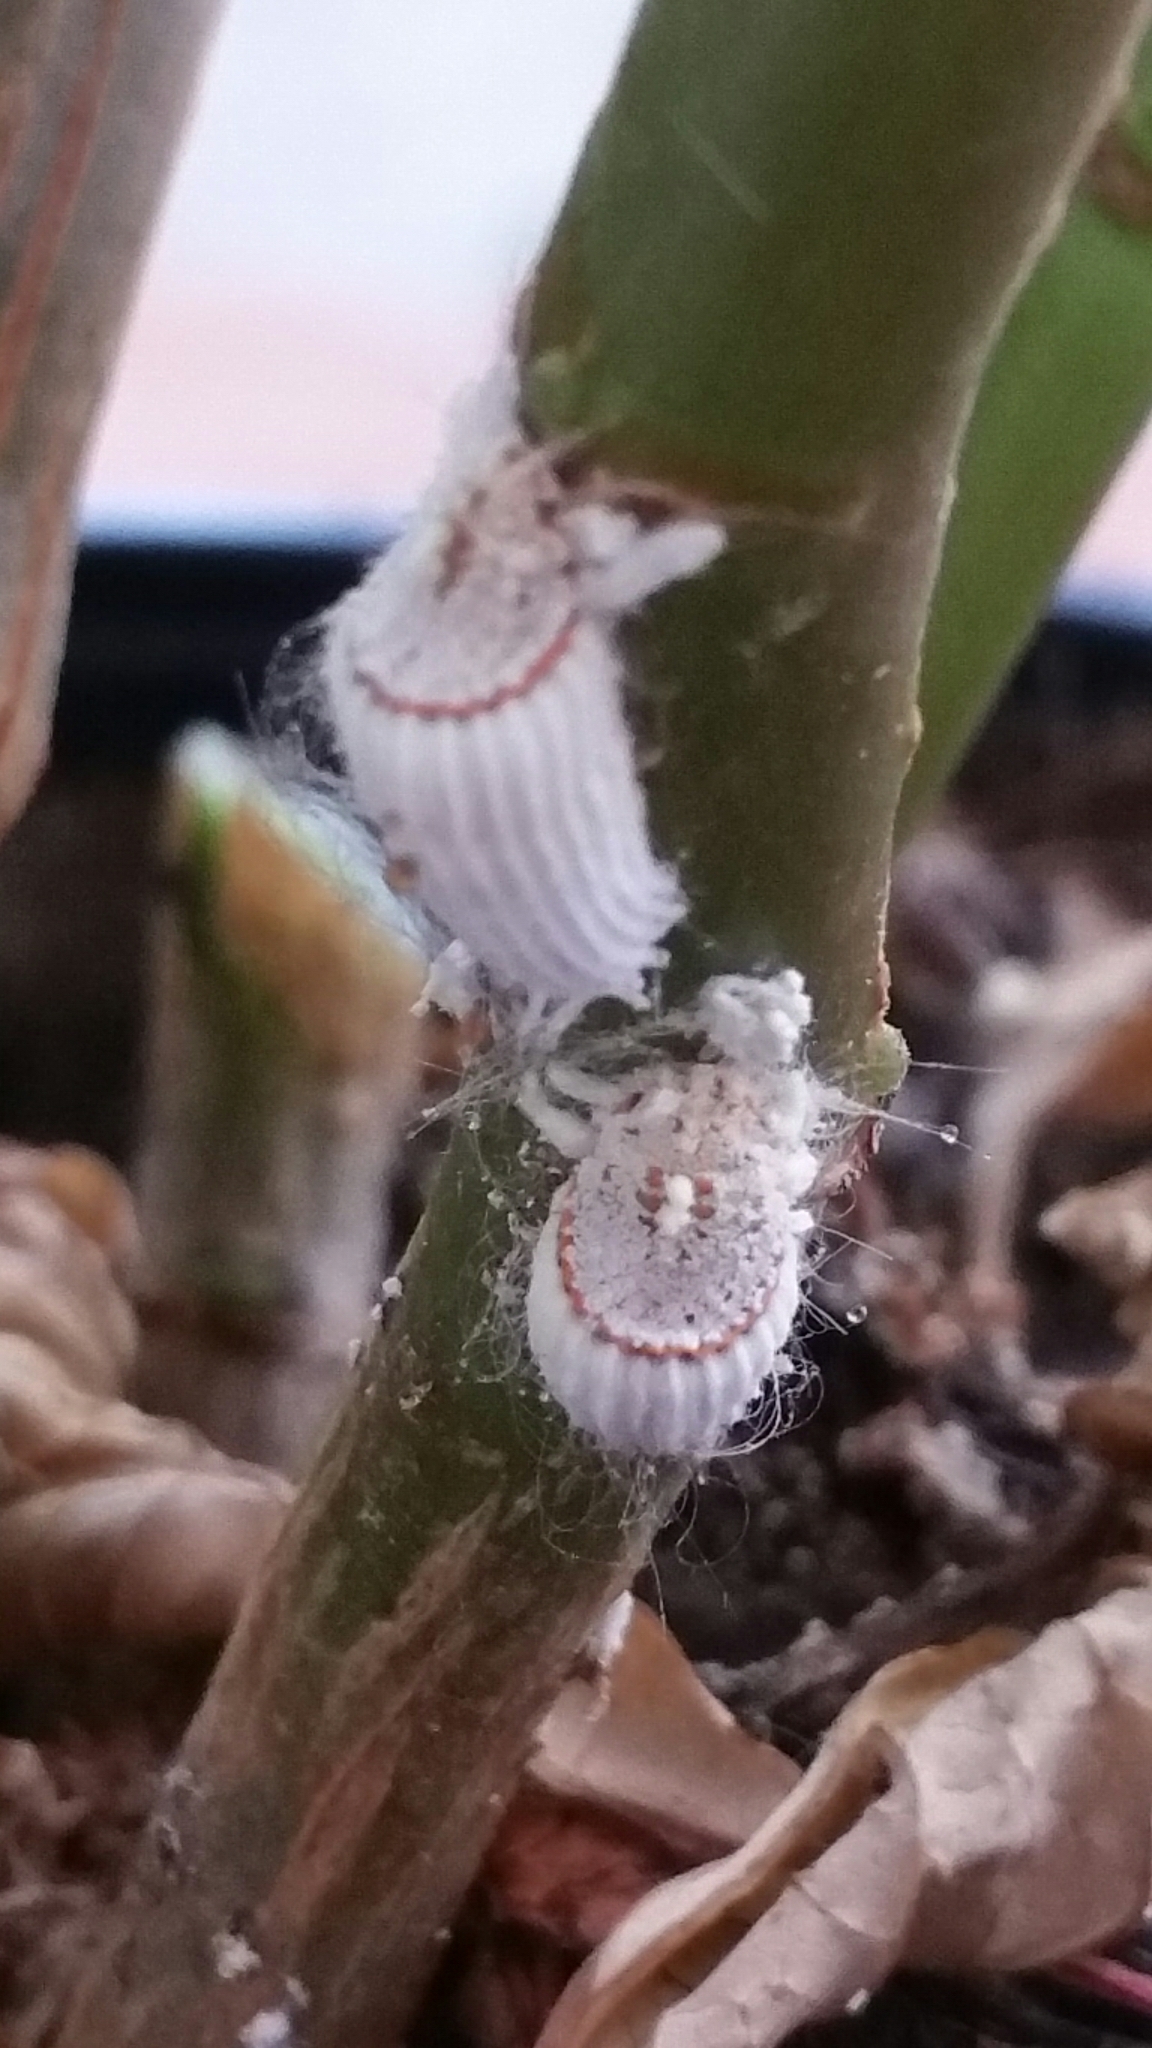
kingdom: Animalia
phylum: Arthropoda
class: Insecta
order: Hemiptera
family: Margarodidae
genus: Icerya
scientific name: Icerya purchasi
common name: Cottony cushion scale
